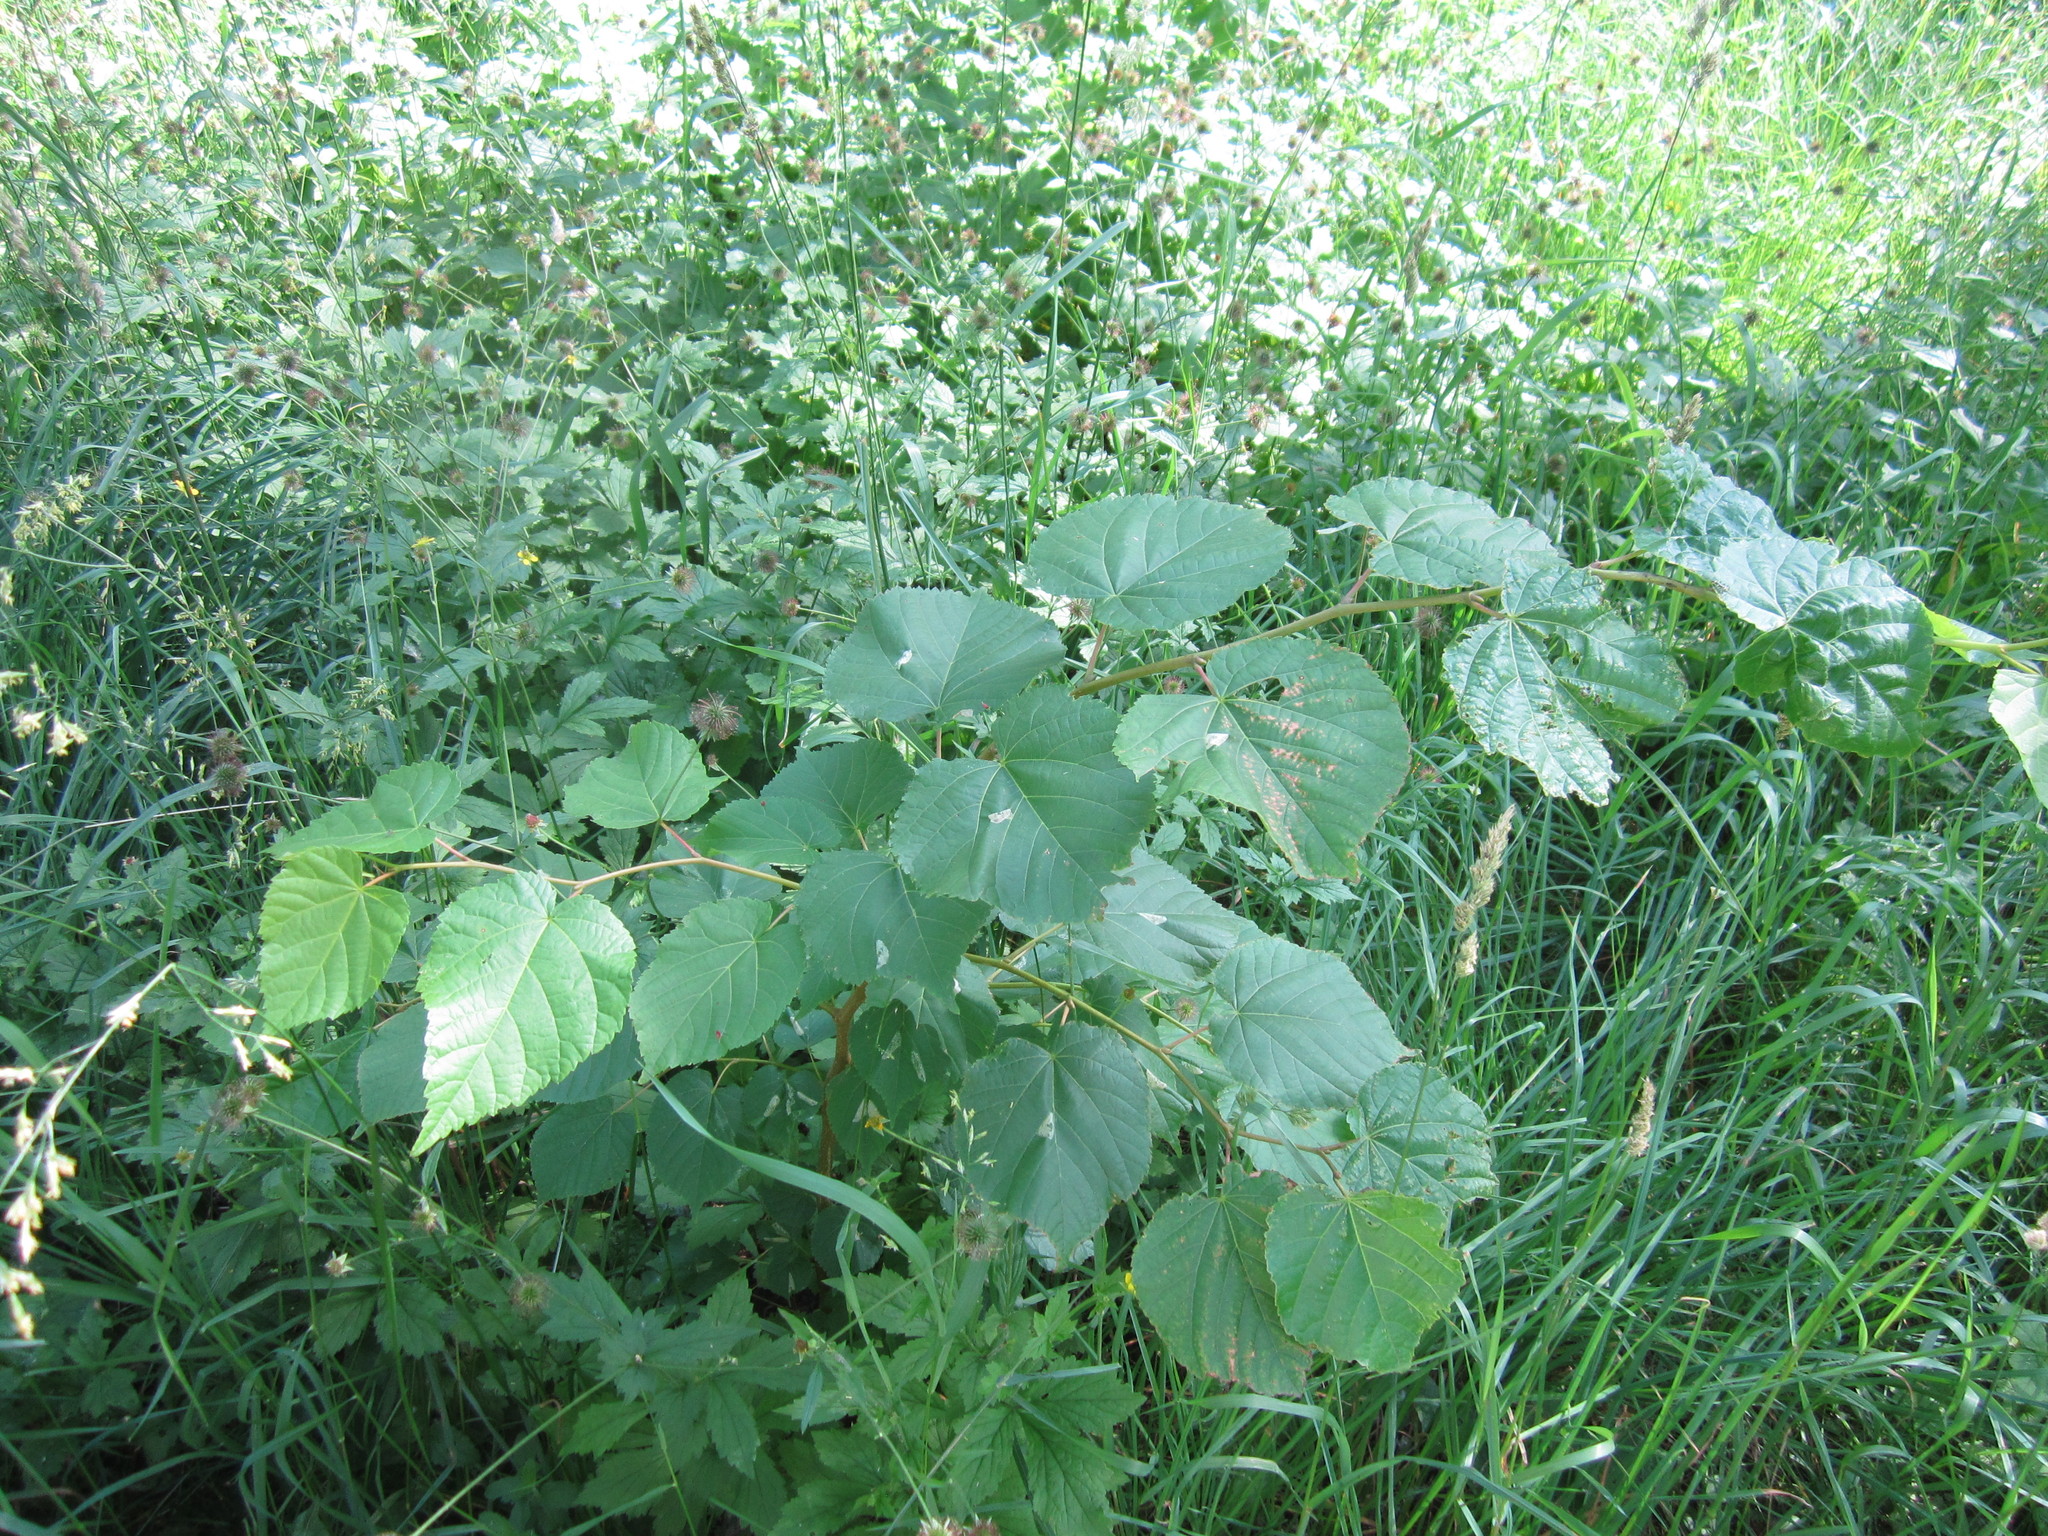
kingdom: Plantae
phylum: Tracheophyta
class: Magnoliopsida
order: Malvales
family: Malvaceae
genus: Tilia
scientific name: Tilia cordata
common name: Small-leaved lime
